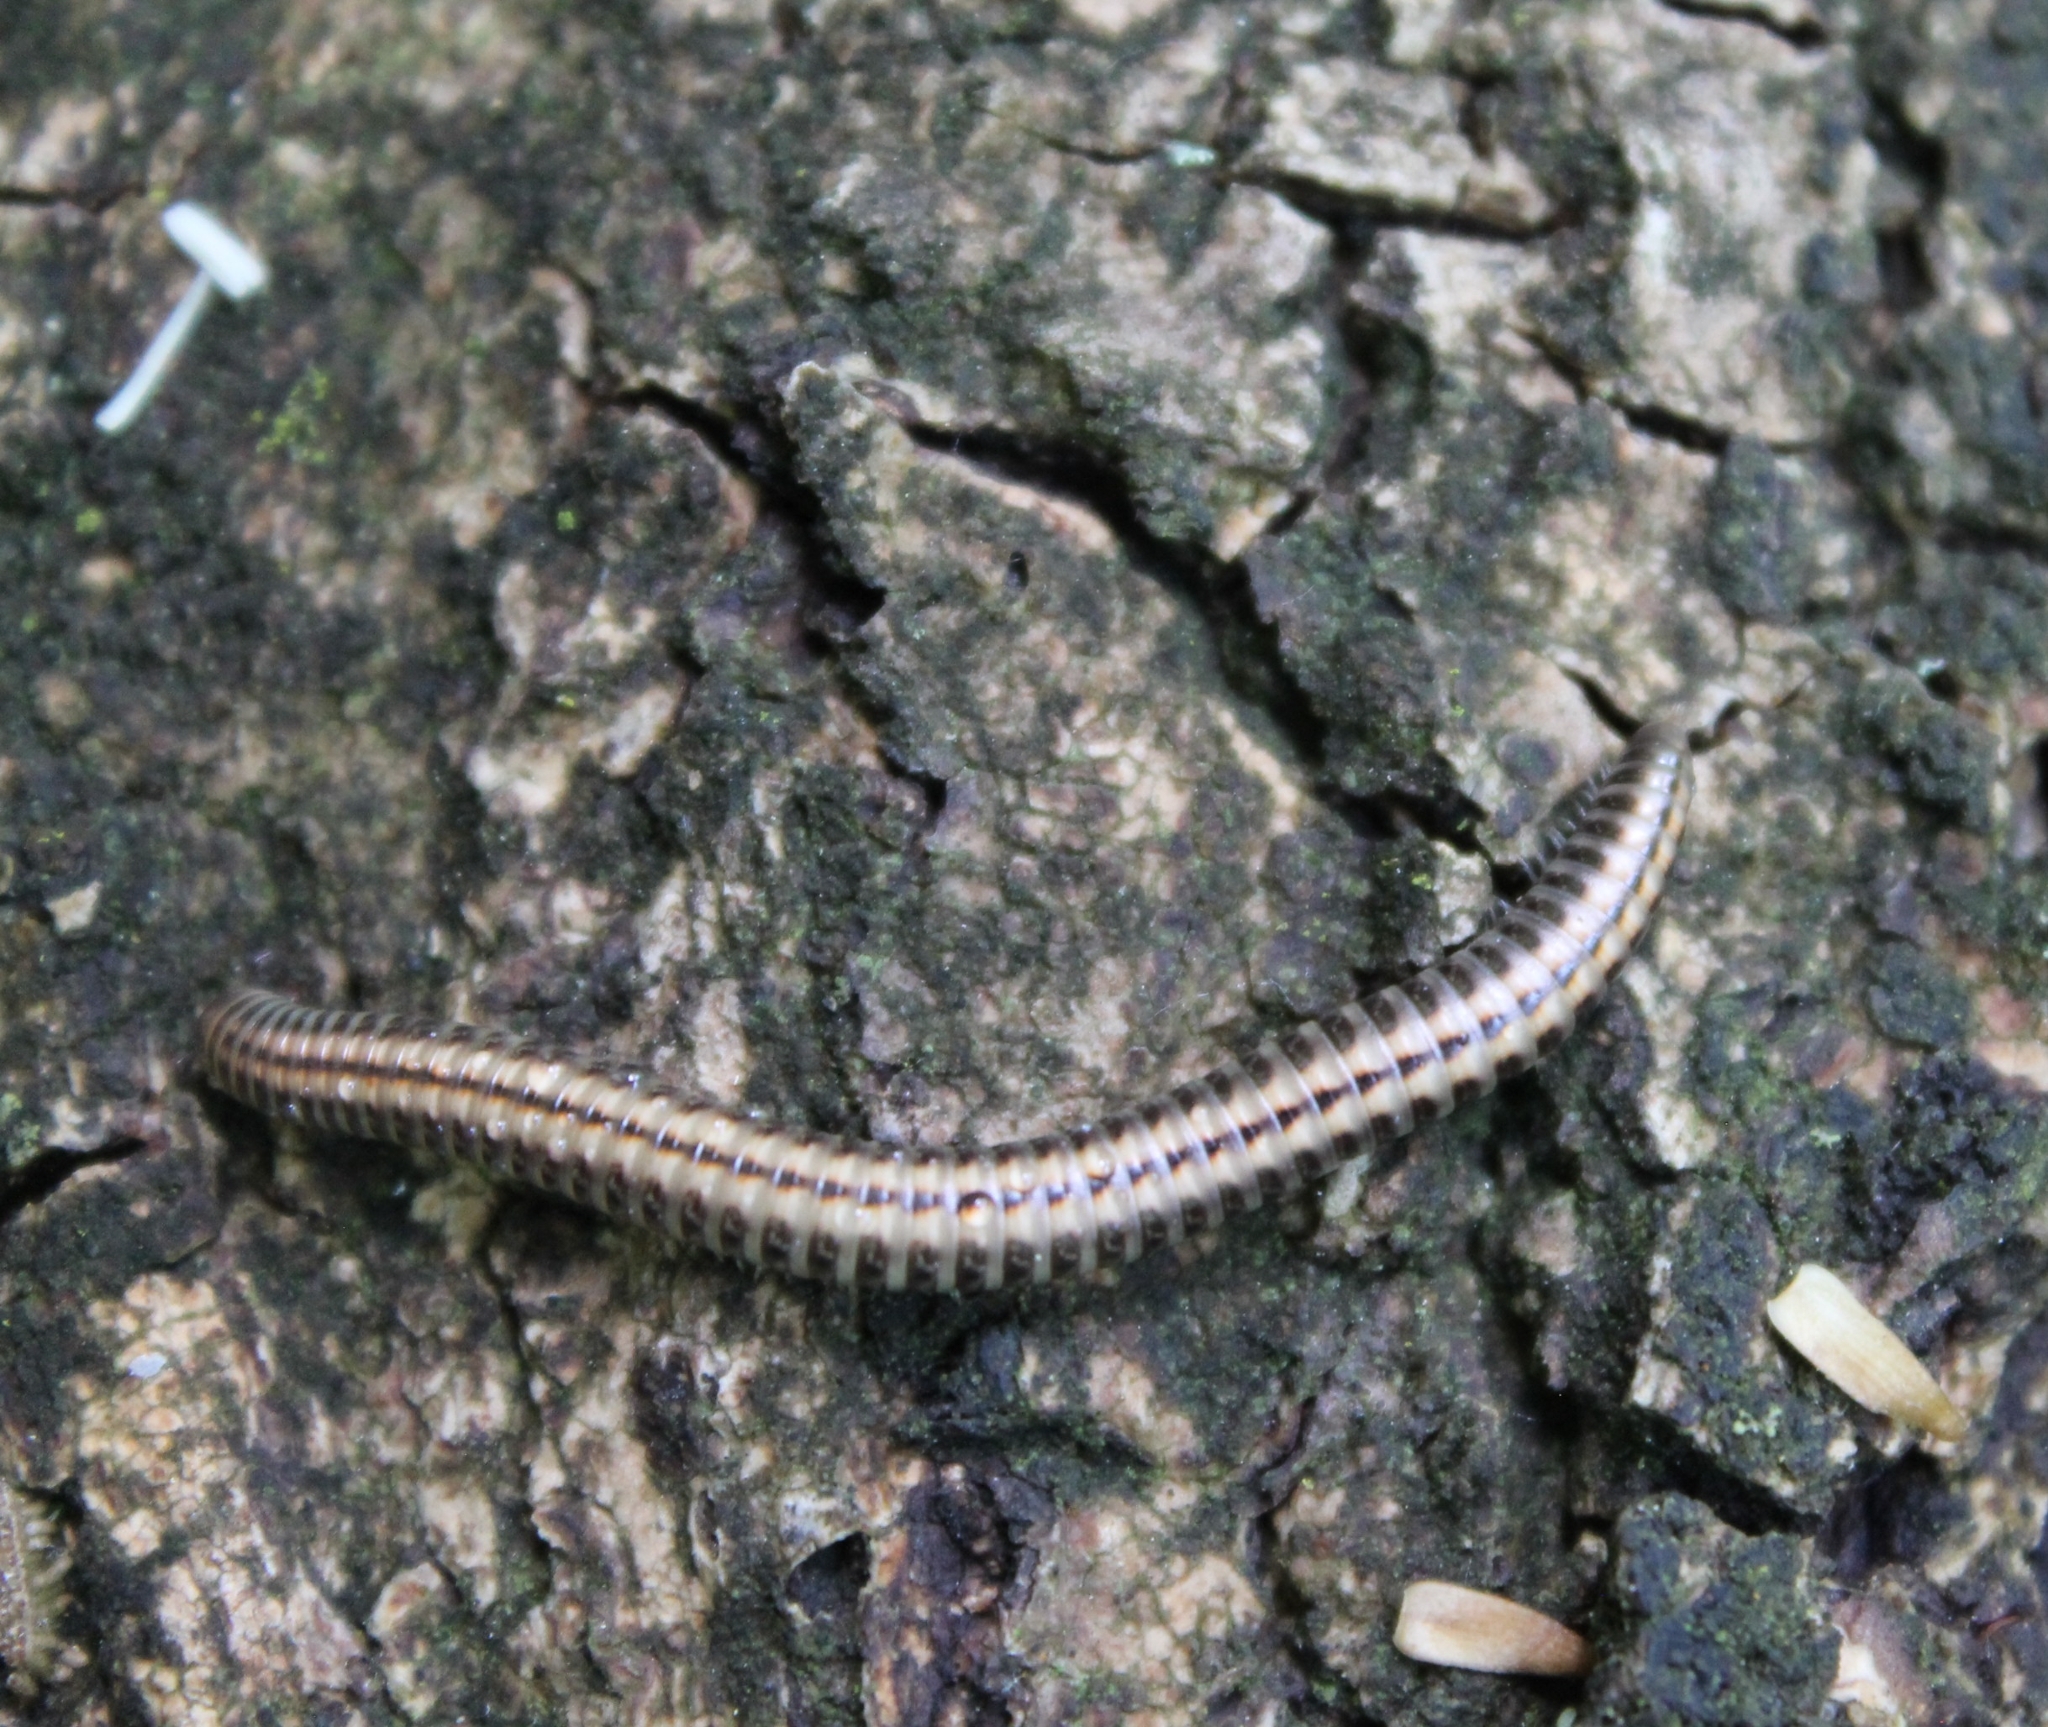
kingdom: Animalia
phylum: Arthropoda
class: Diplopoda
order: Julida
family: Julidae
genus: Ommatoiulus
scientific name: Ommatoiulus sabulosus
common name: Striped millipede
